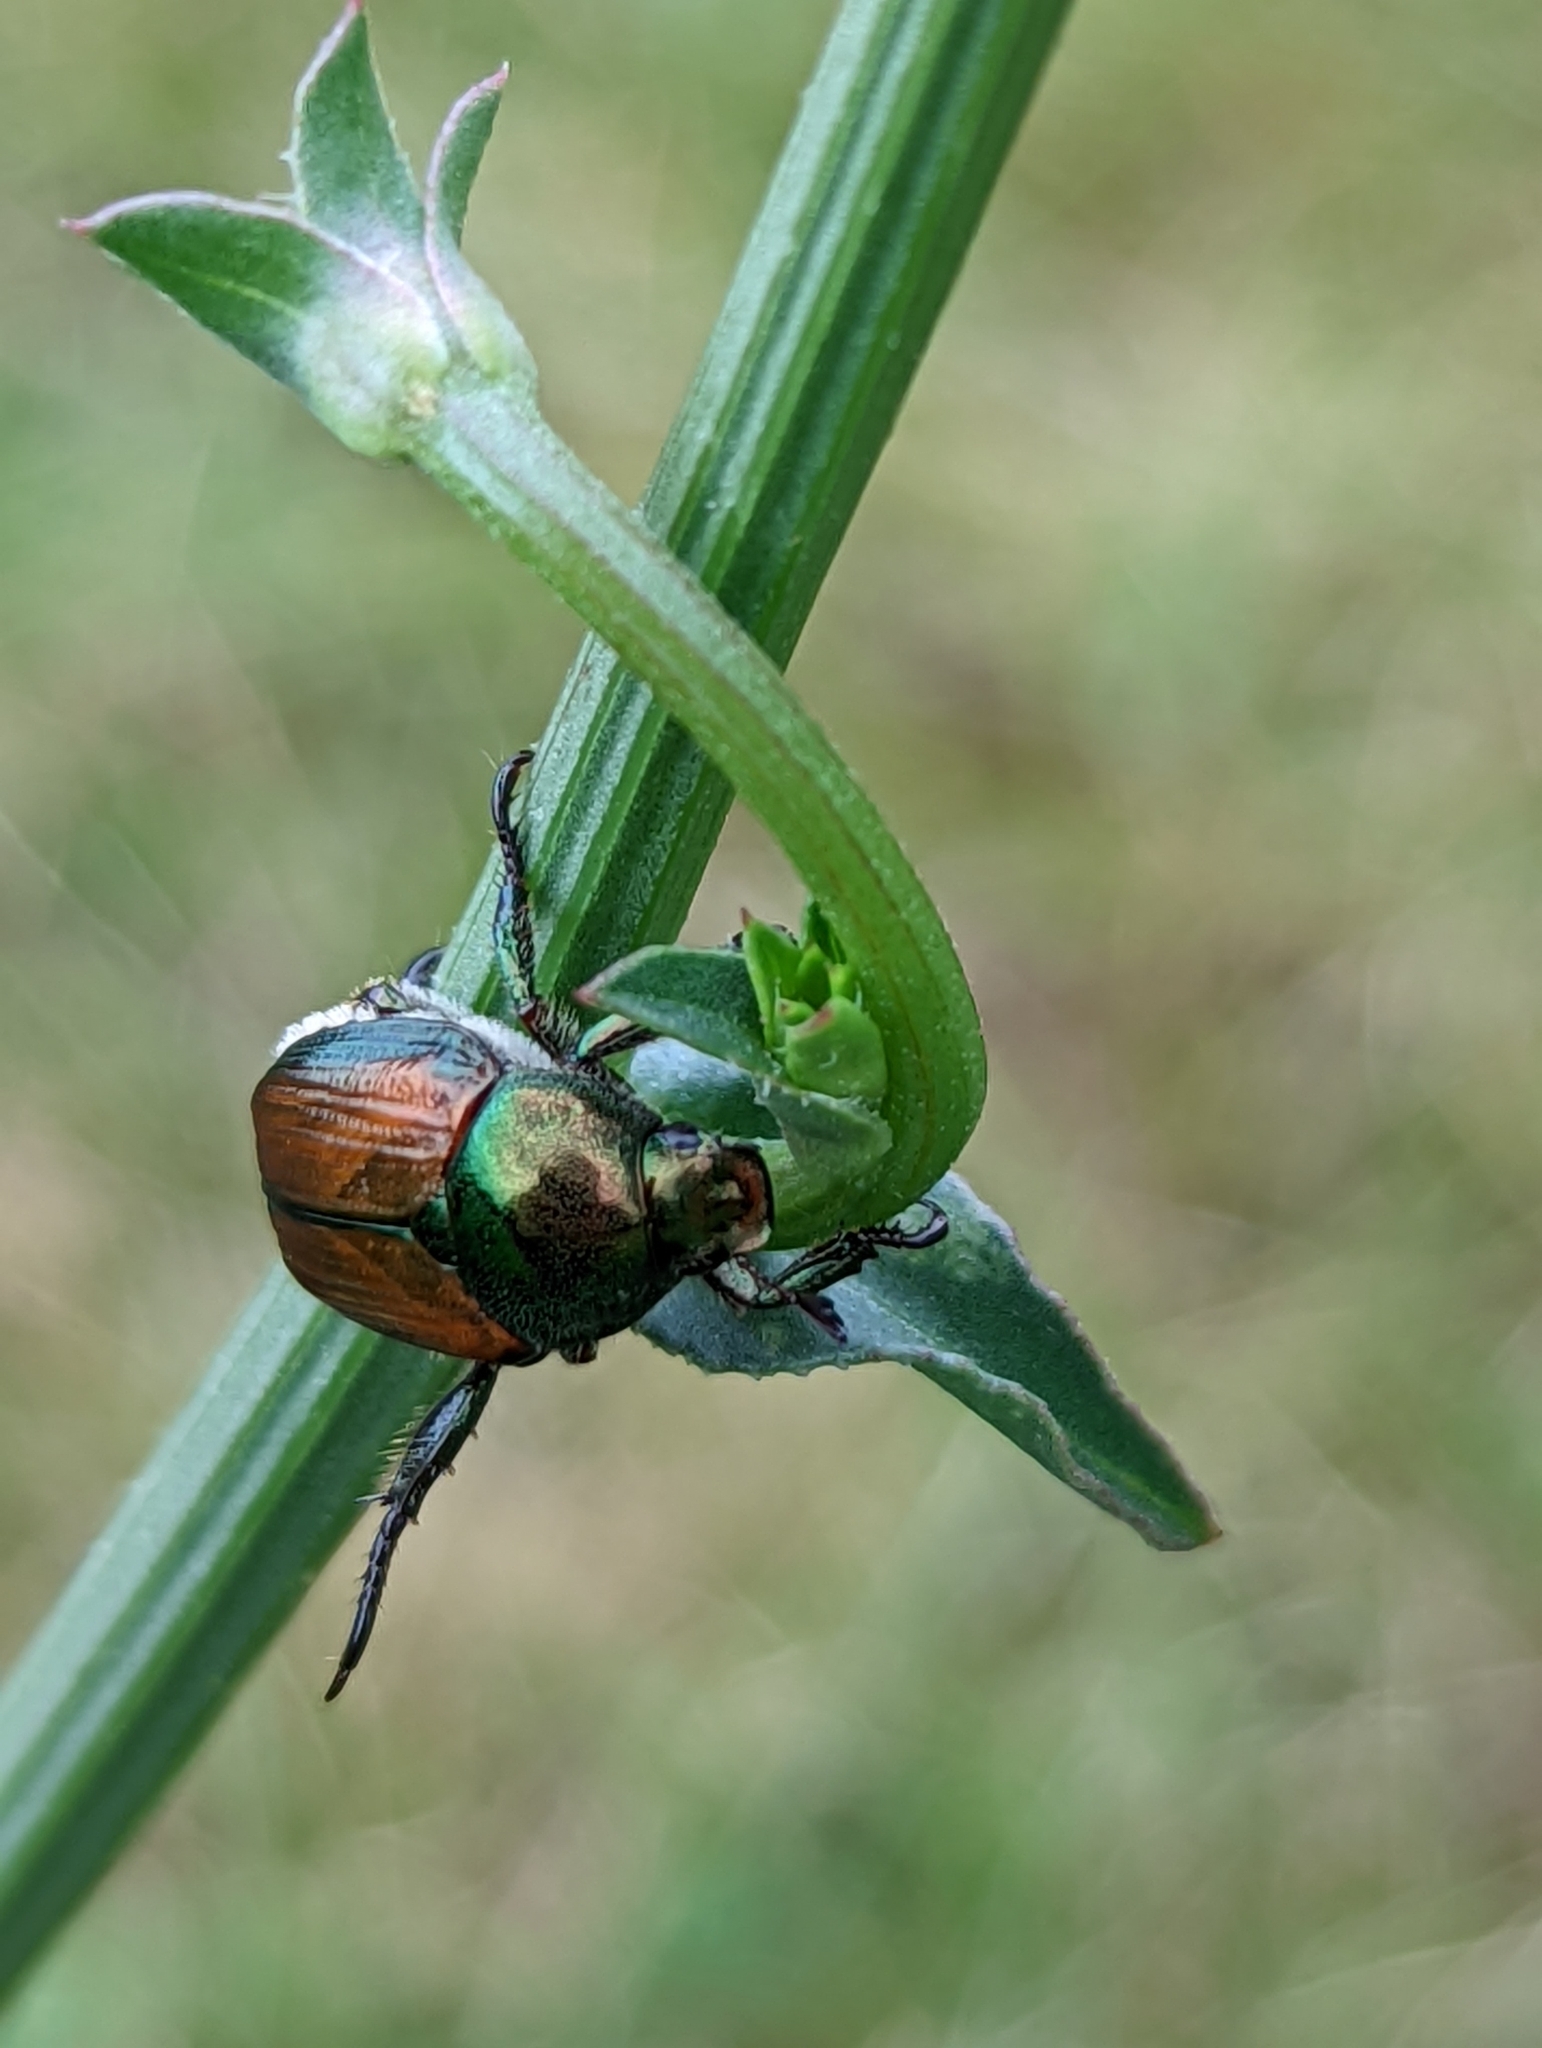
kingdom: Animalia
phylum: Arthropoda
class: Insecta
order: Coleoptera
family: Scarabaeidae
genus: Popillia
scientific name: Popillia japonica
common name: Japanese beetle
